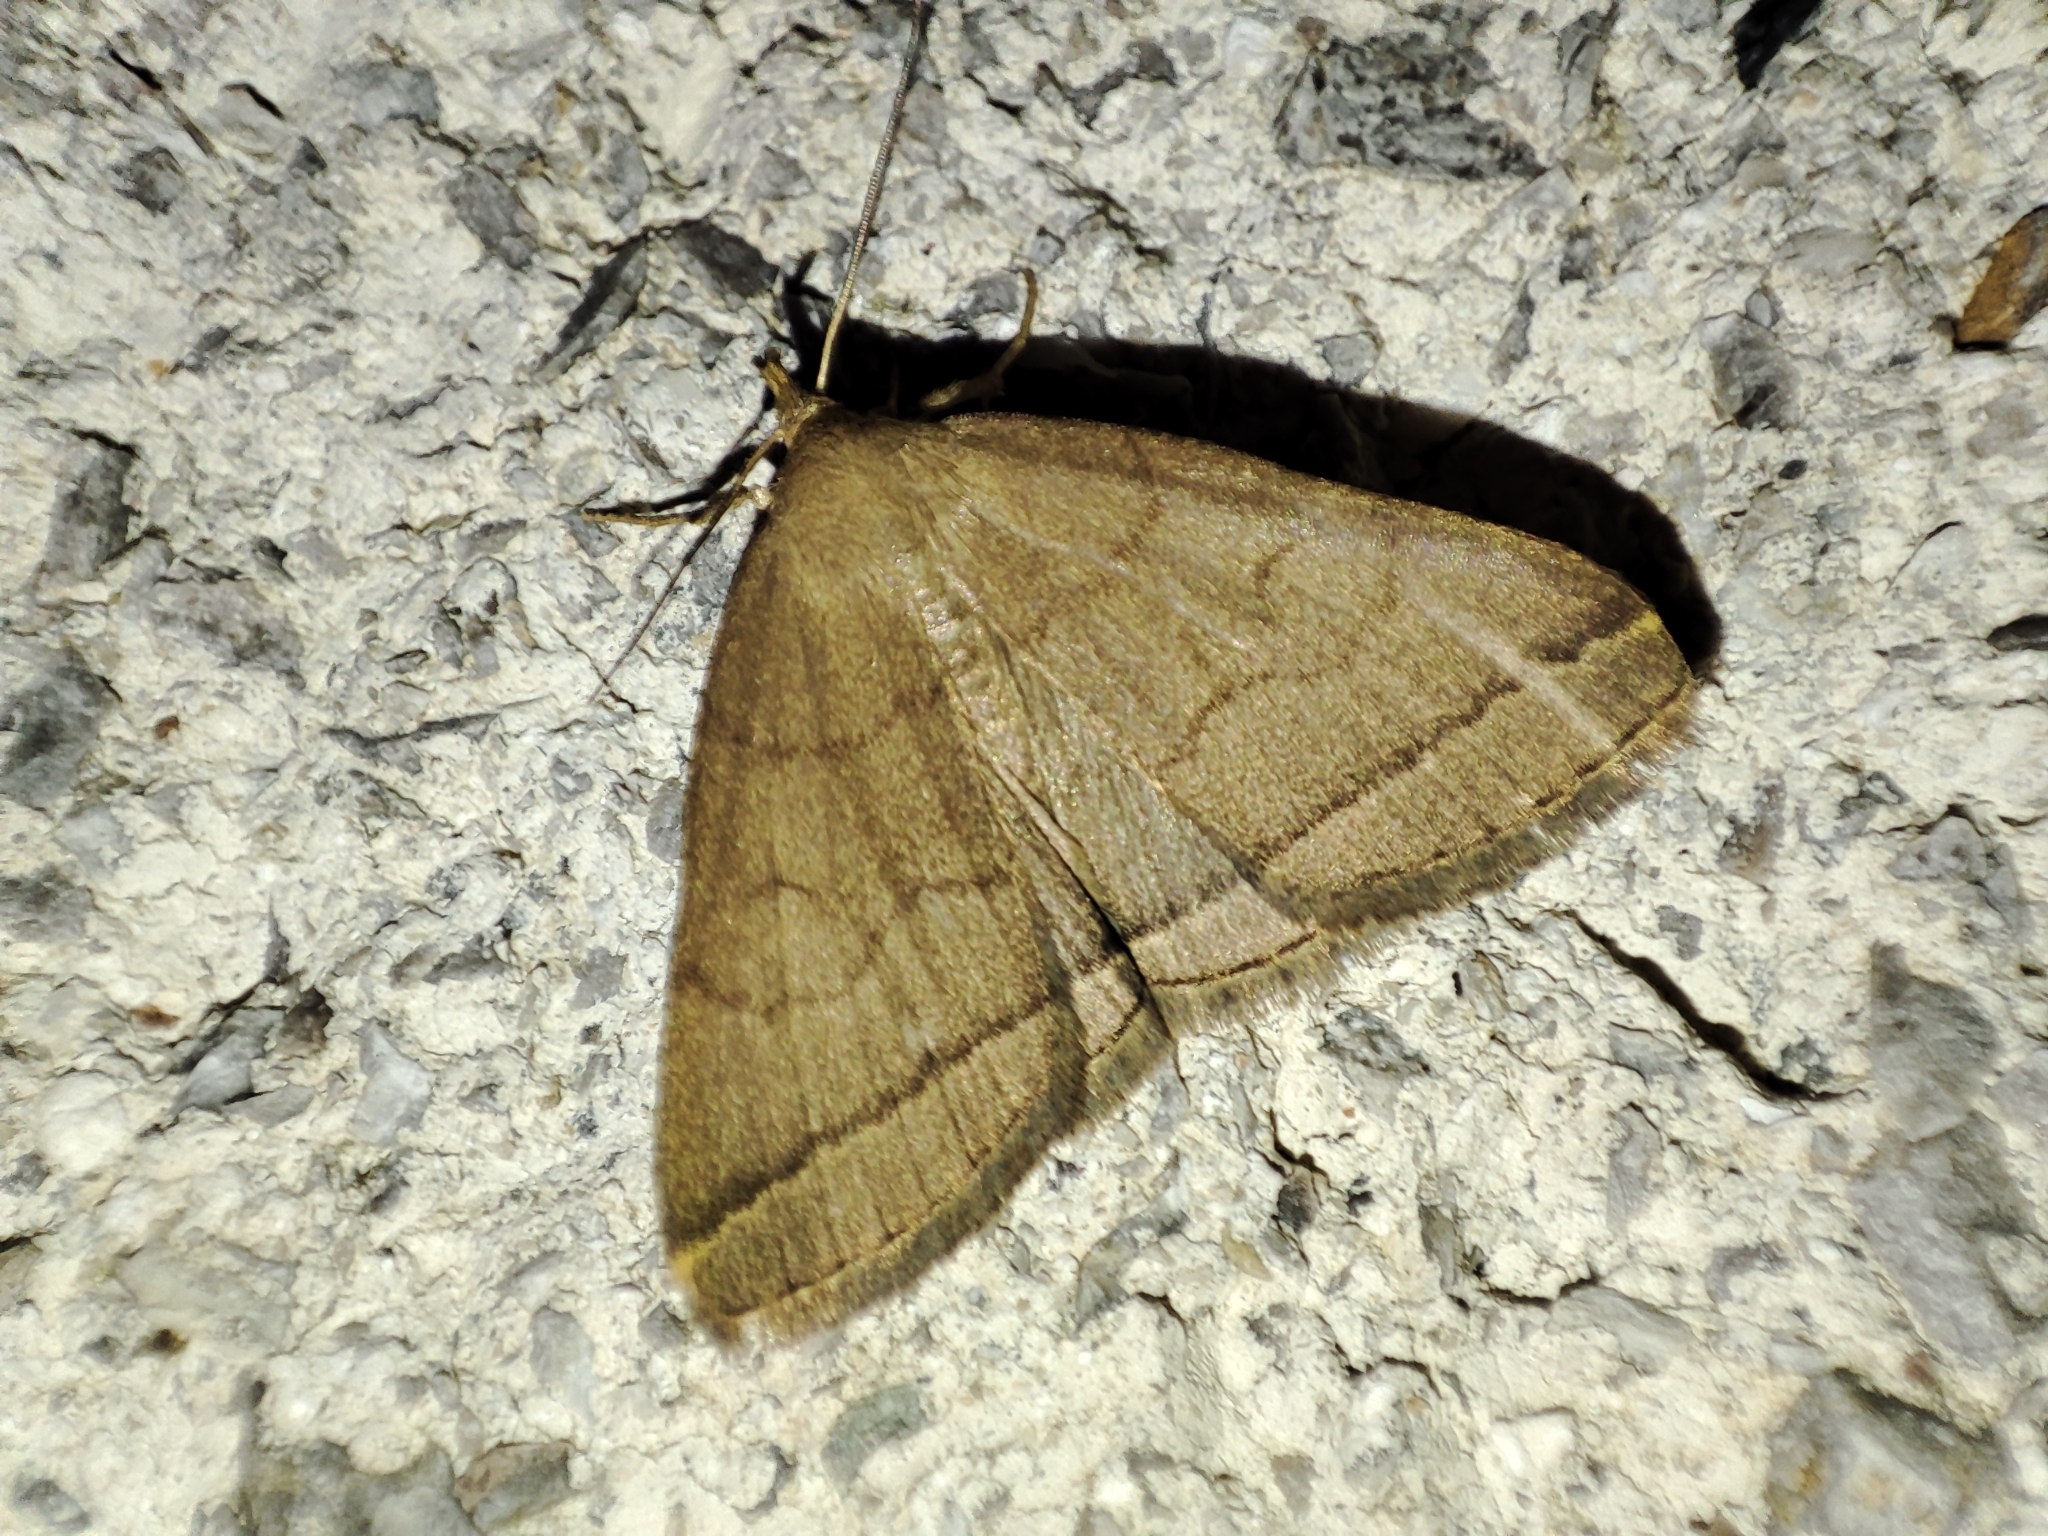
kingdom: Animalia
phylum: Arthropoda
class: Insecta
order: Lepidoptera
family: Erebidae
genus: Herminia
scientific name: Herminia tarsipennalis
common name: Fan-foot
